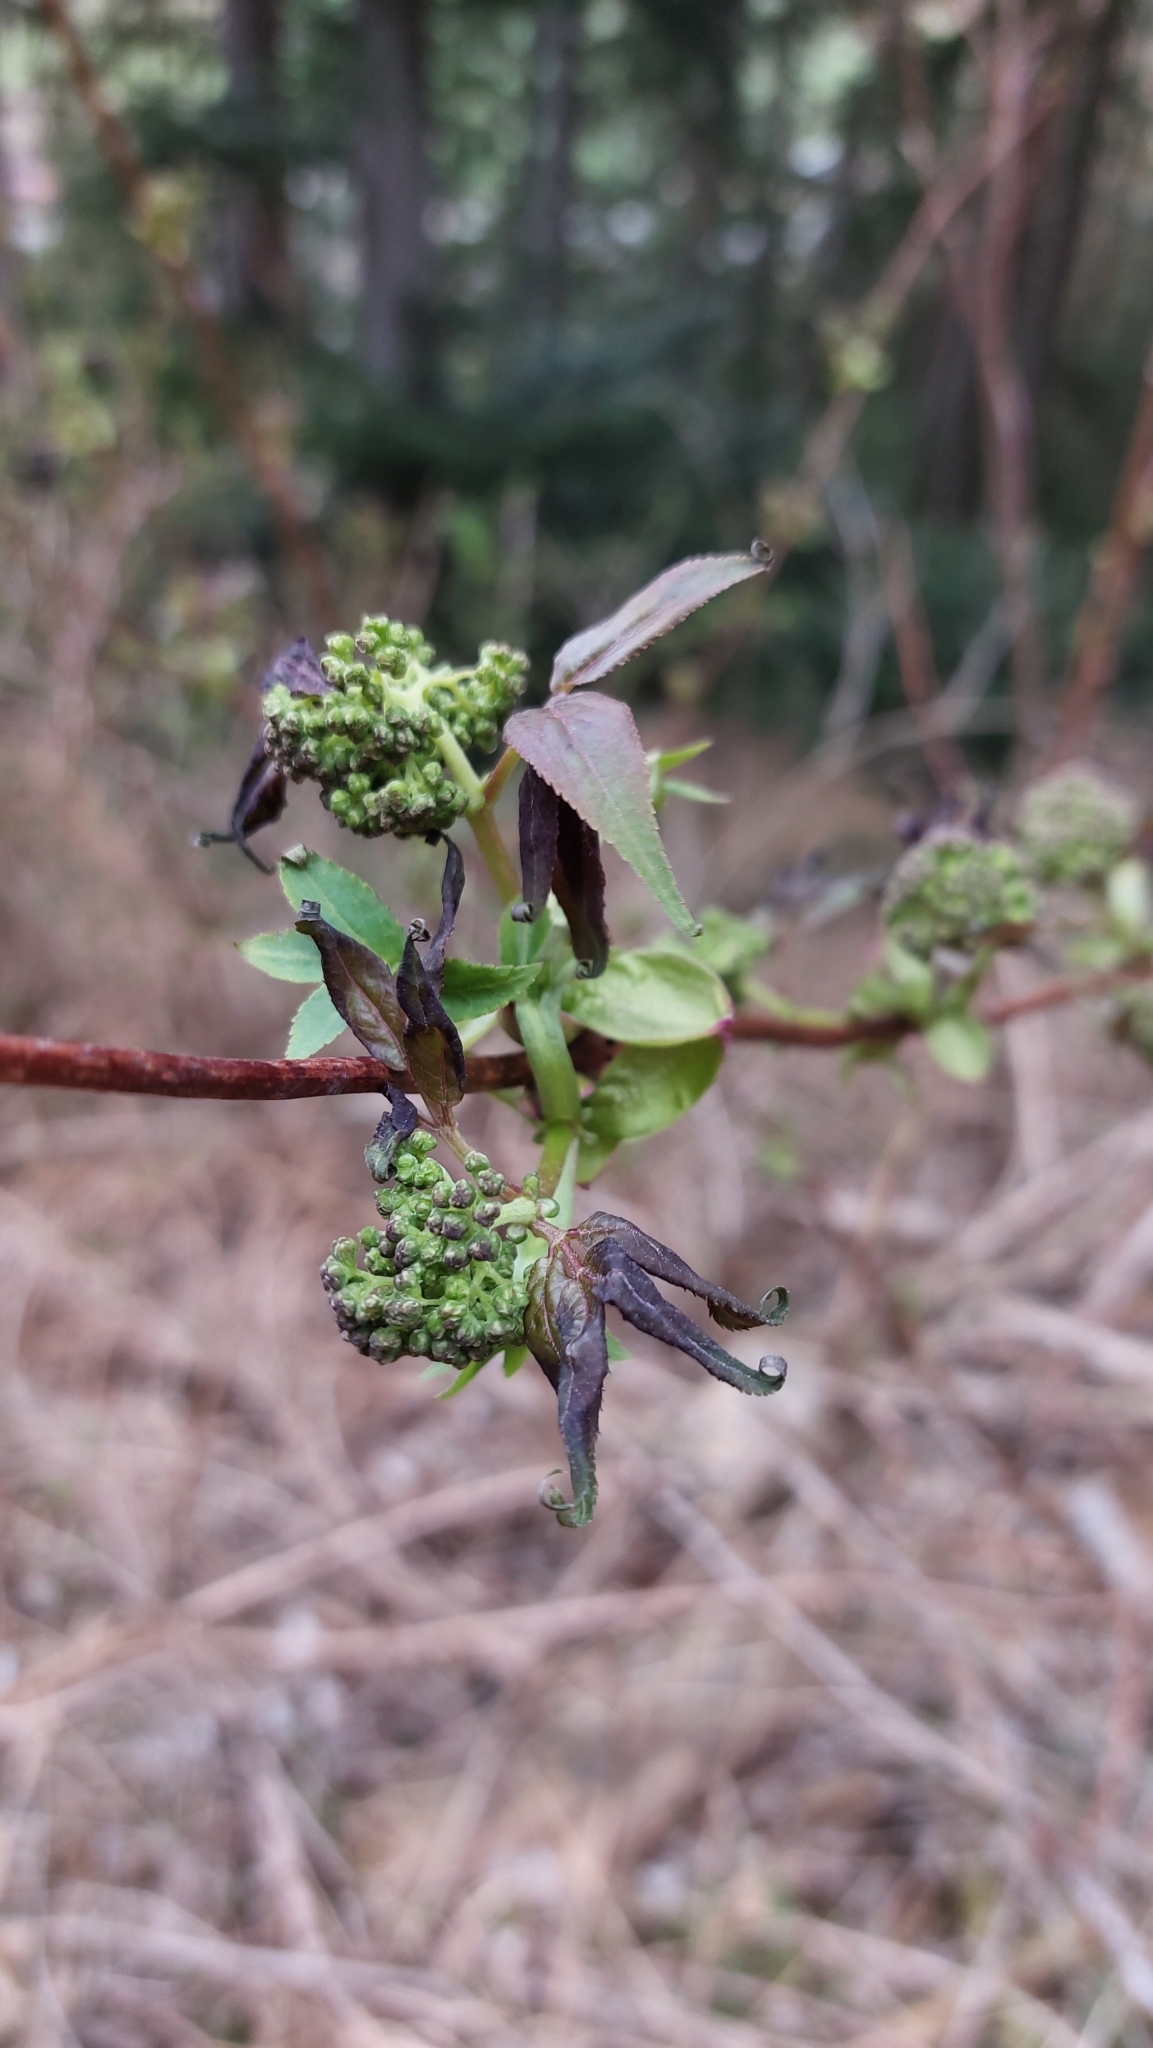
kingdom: Plantae
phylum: Tracheophyta
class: Magnoliopsida
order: Dipsacales
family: Viburnaceae
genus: Sambucus
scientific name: Sambucus racemosa
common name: Red-berried elder
